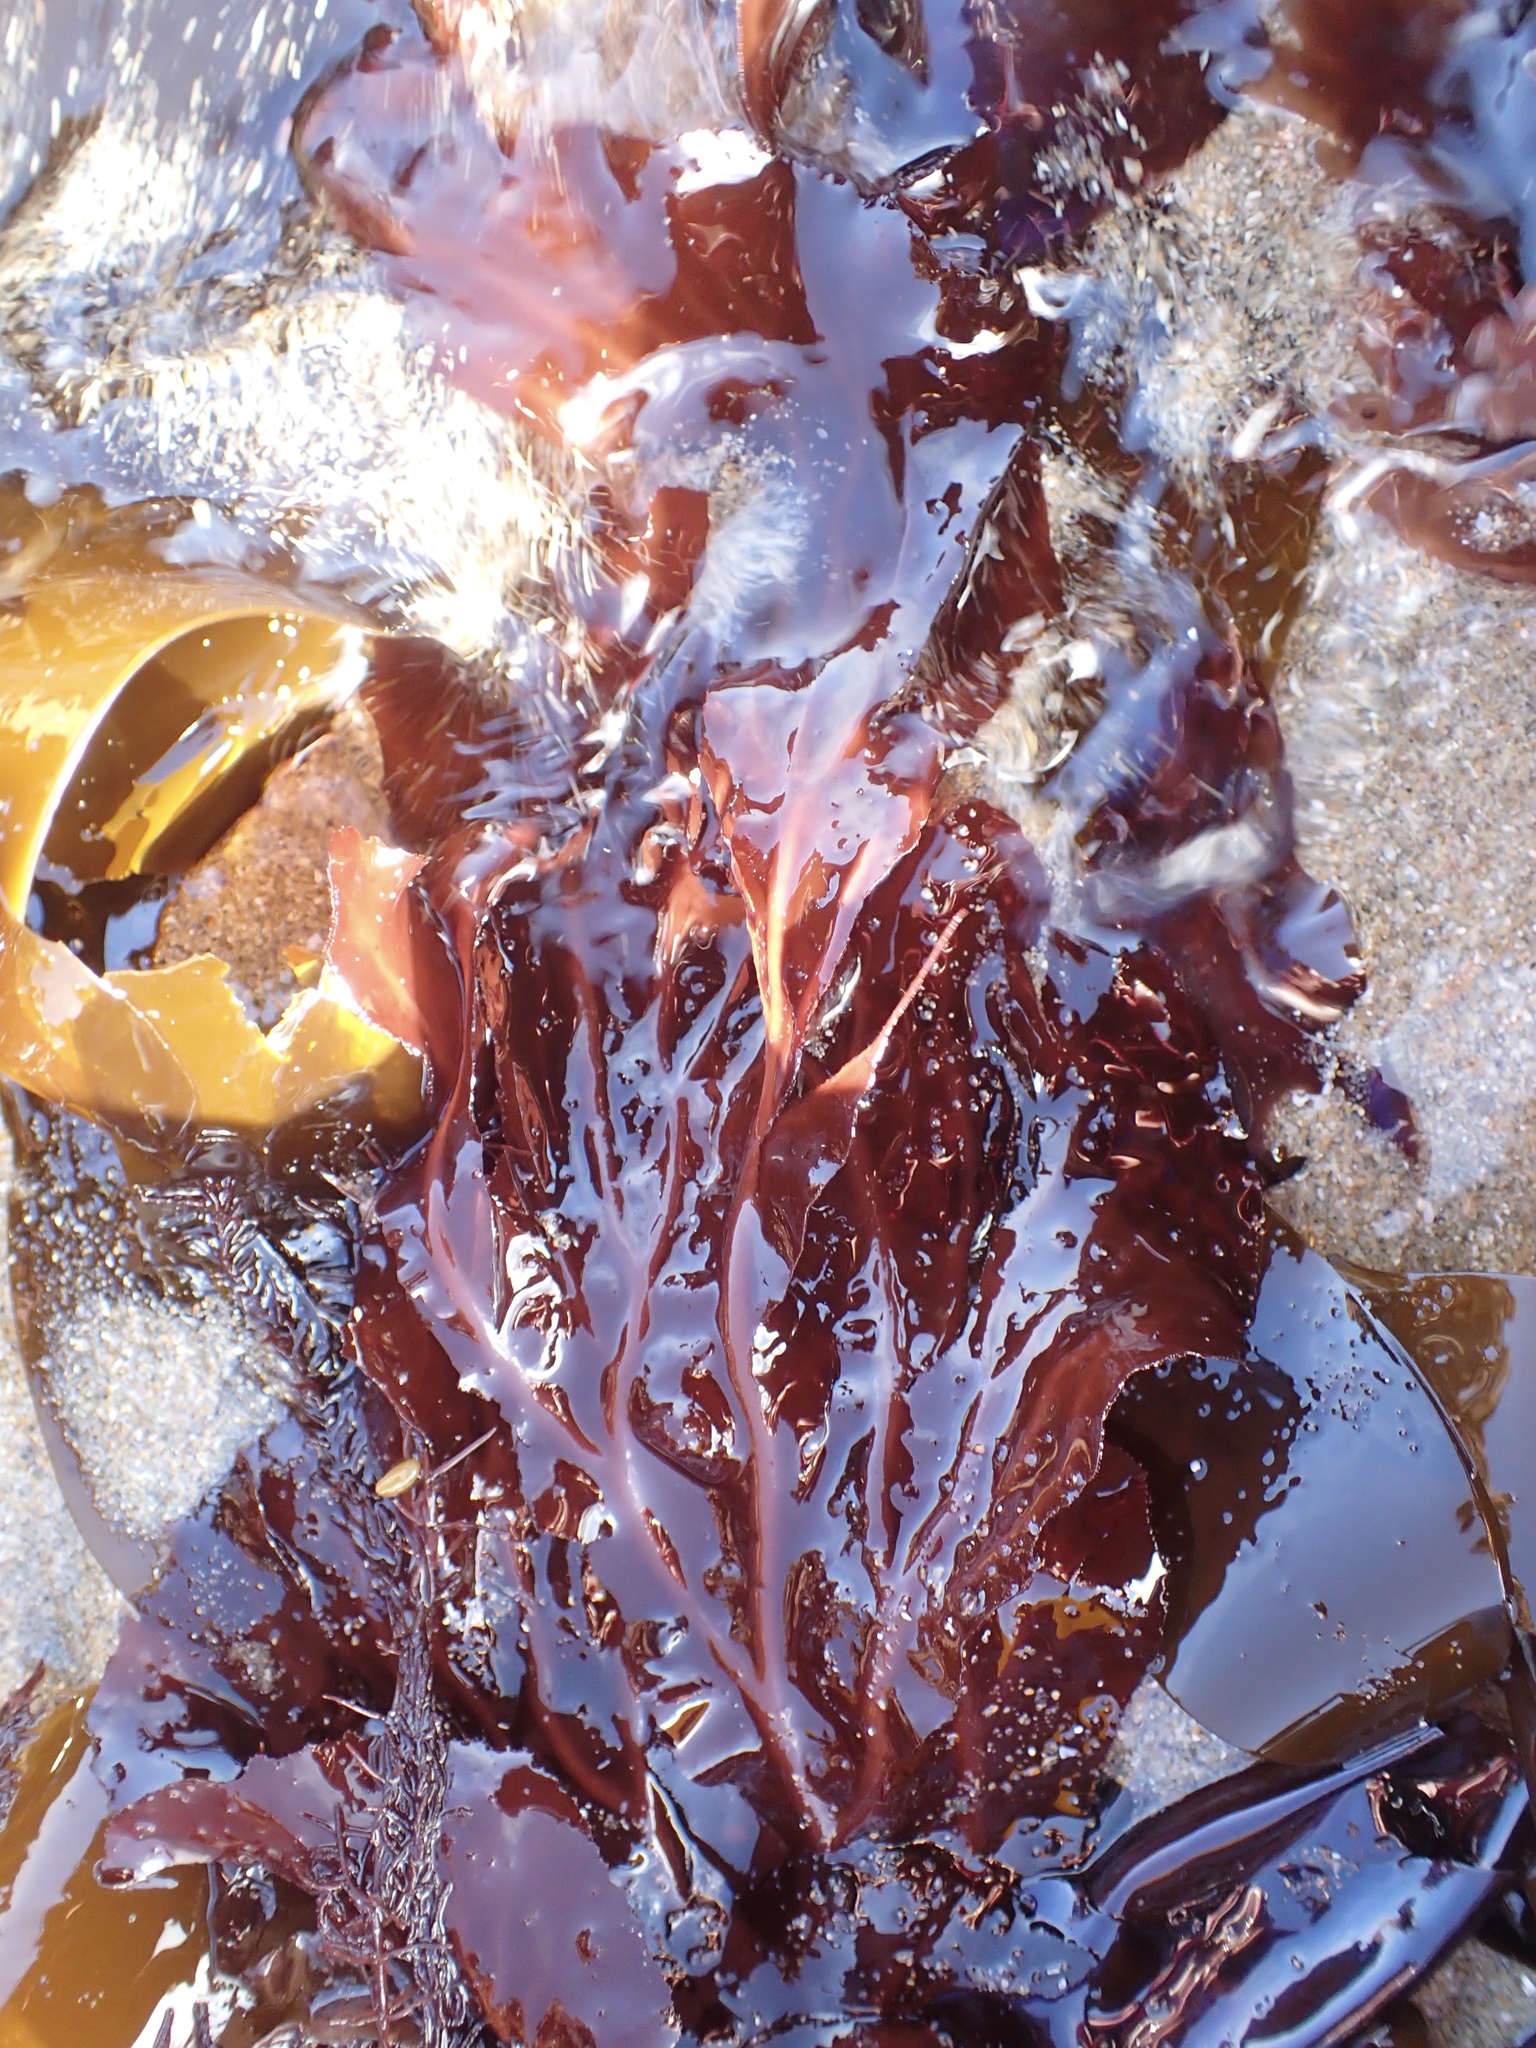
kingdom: Plantae
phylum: Rhodophyta
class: Florideophyceae
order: Gigartinales
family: Kallymeniaceae
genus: Erythrophyllum
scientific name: Erythrophyllum delesserioides
